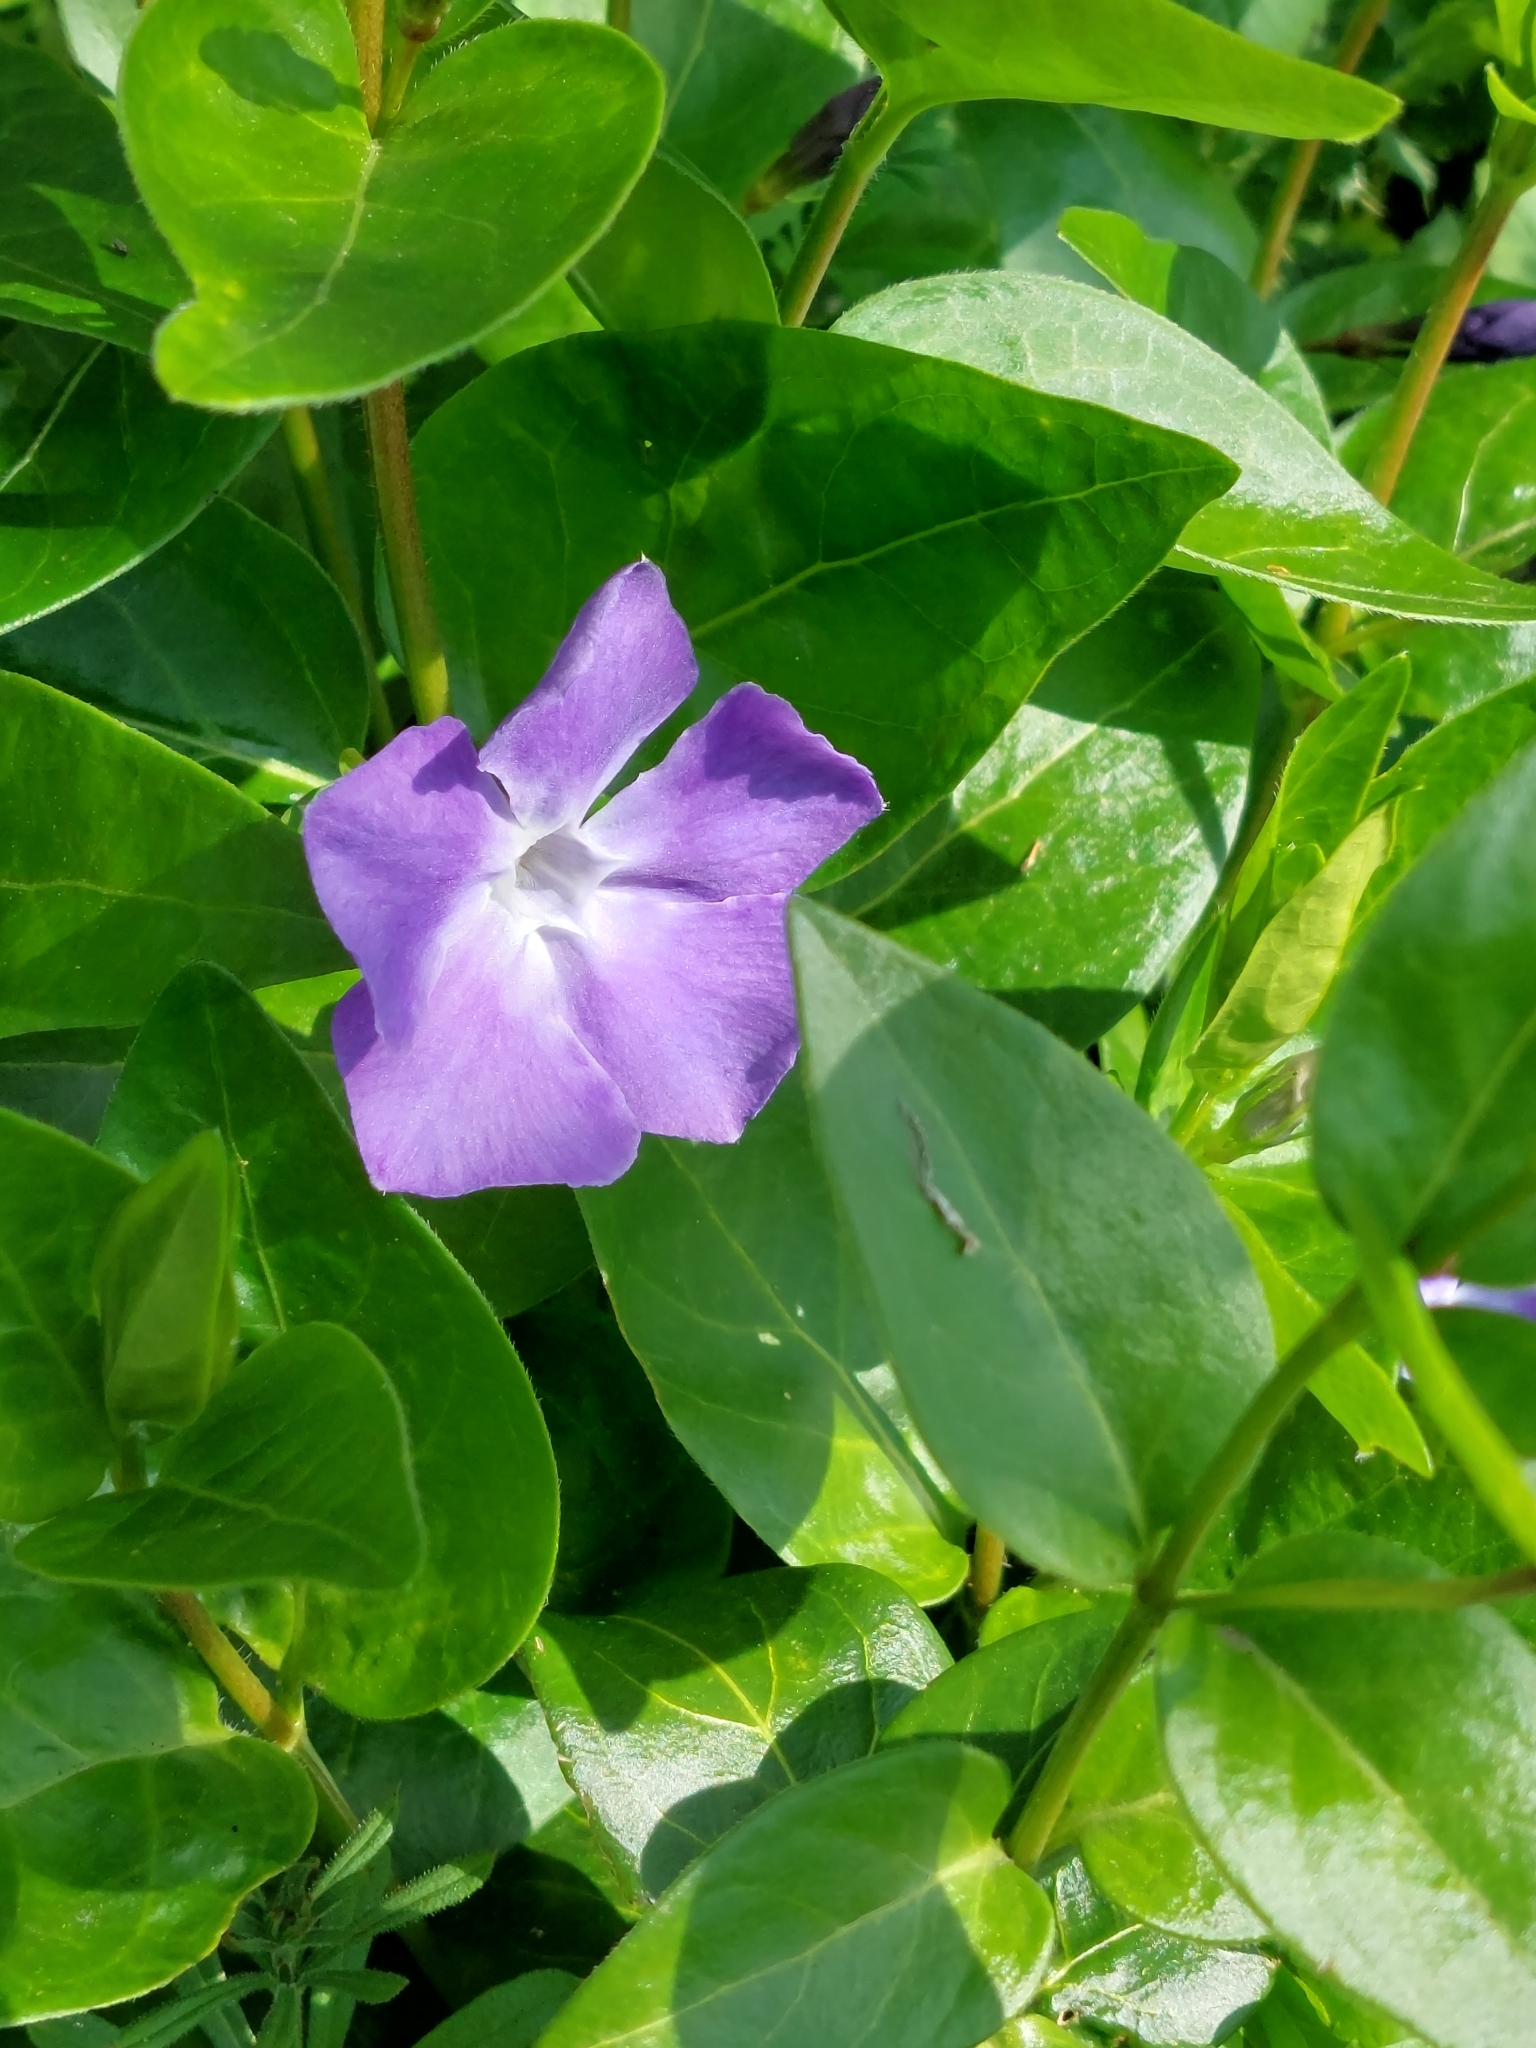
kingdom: Plantae
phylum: Tracheophyta
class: Magnoliopsida
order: Gentianales
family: Apocynaceae
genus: Vinca
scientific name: Vinca major
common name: Greater periwinkle
